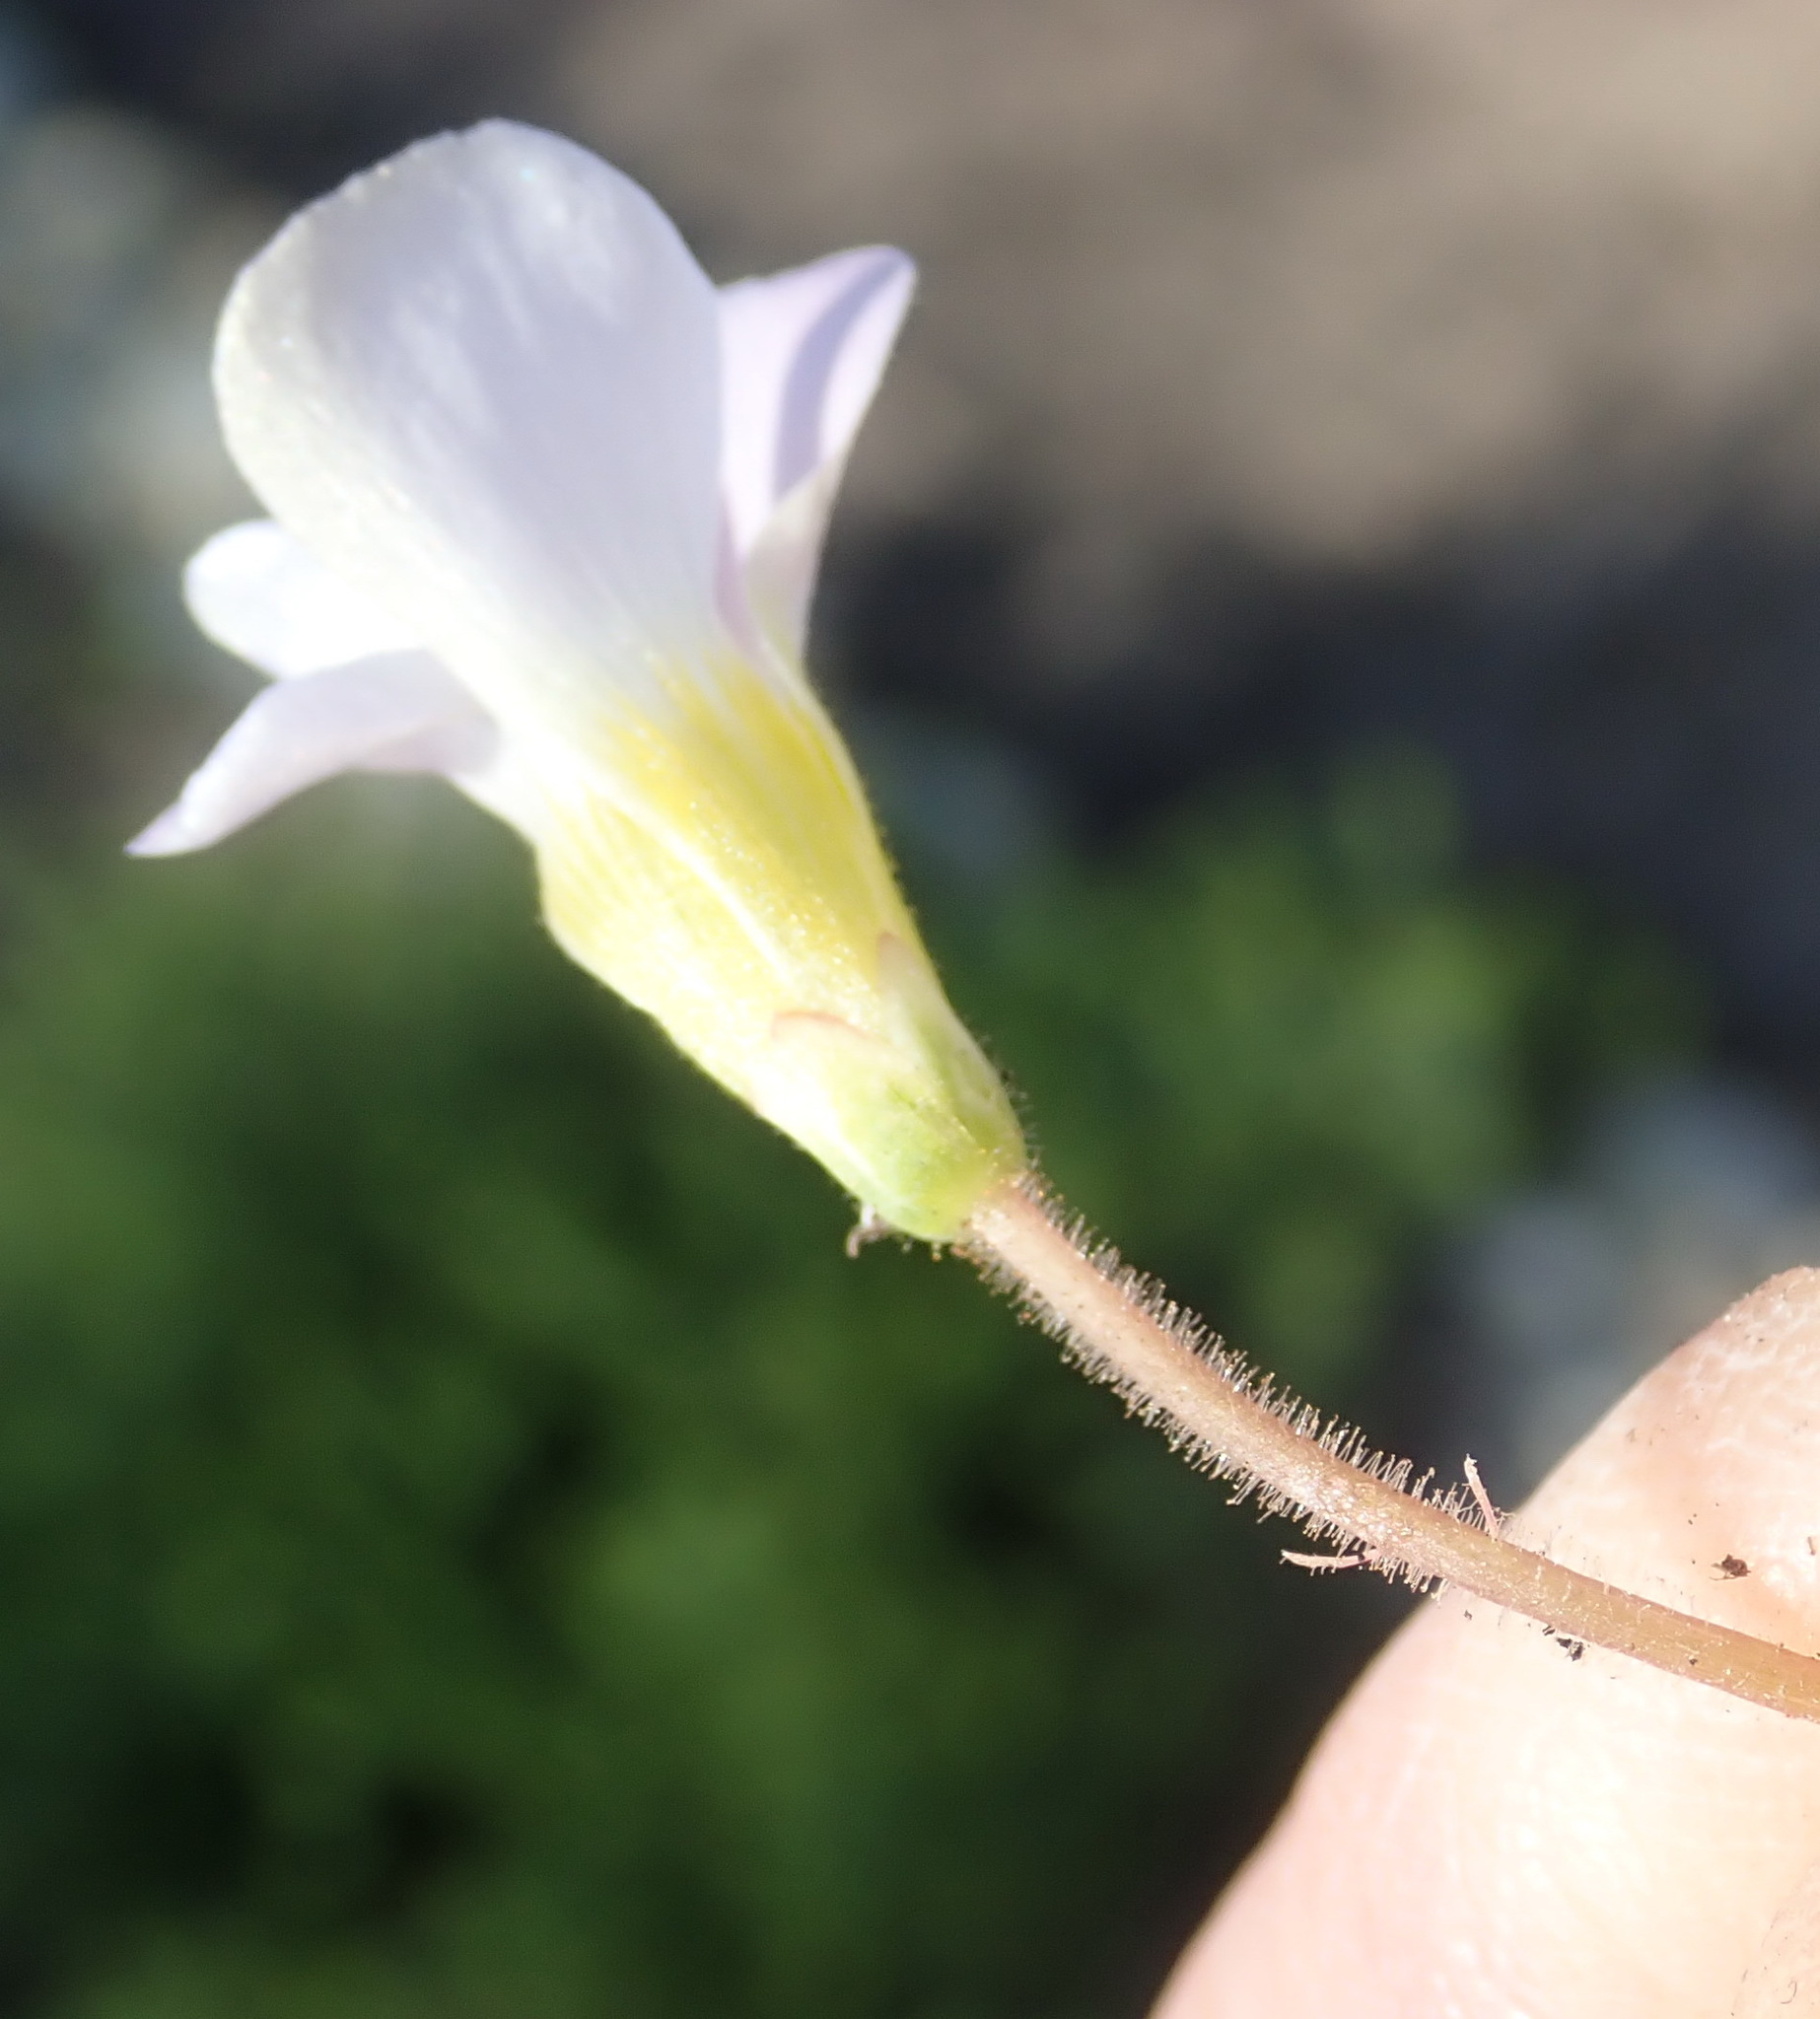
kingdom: Plantae
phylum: Tracheophyta
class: Magnoliopsida
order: Oxalidales
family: Oxalidaceae
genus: Oxalis
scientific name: Oxalis punctata
